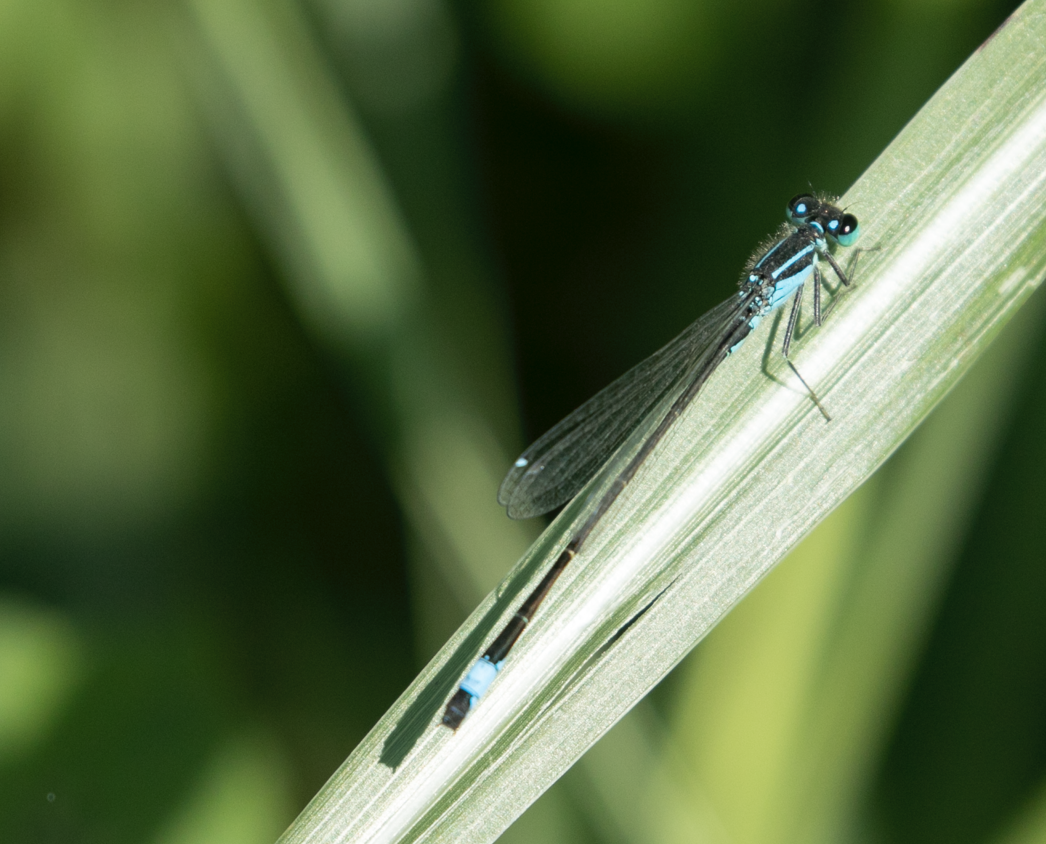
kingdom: Animalia
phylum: Arthropoda
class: Insecta
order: Odonata
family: Coenagrionidae
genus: Ischnura
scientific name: Ischnura elegans
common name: Blue-tailed damselfly
